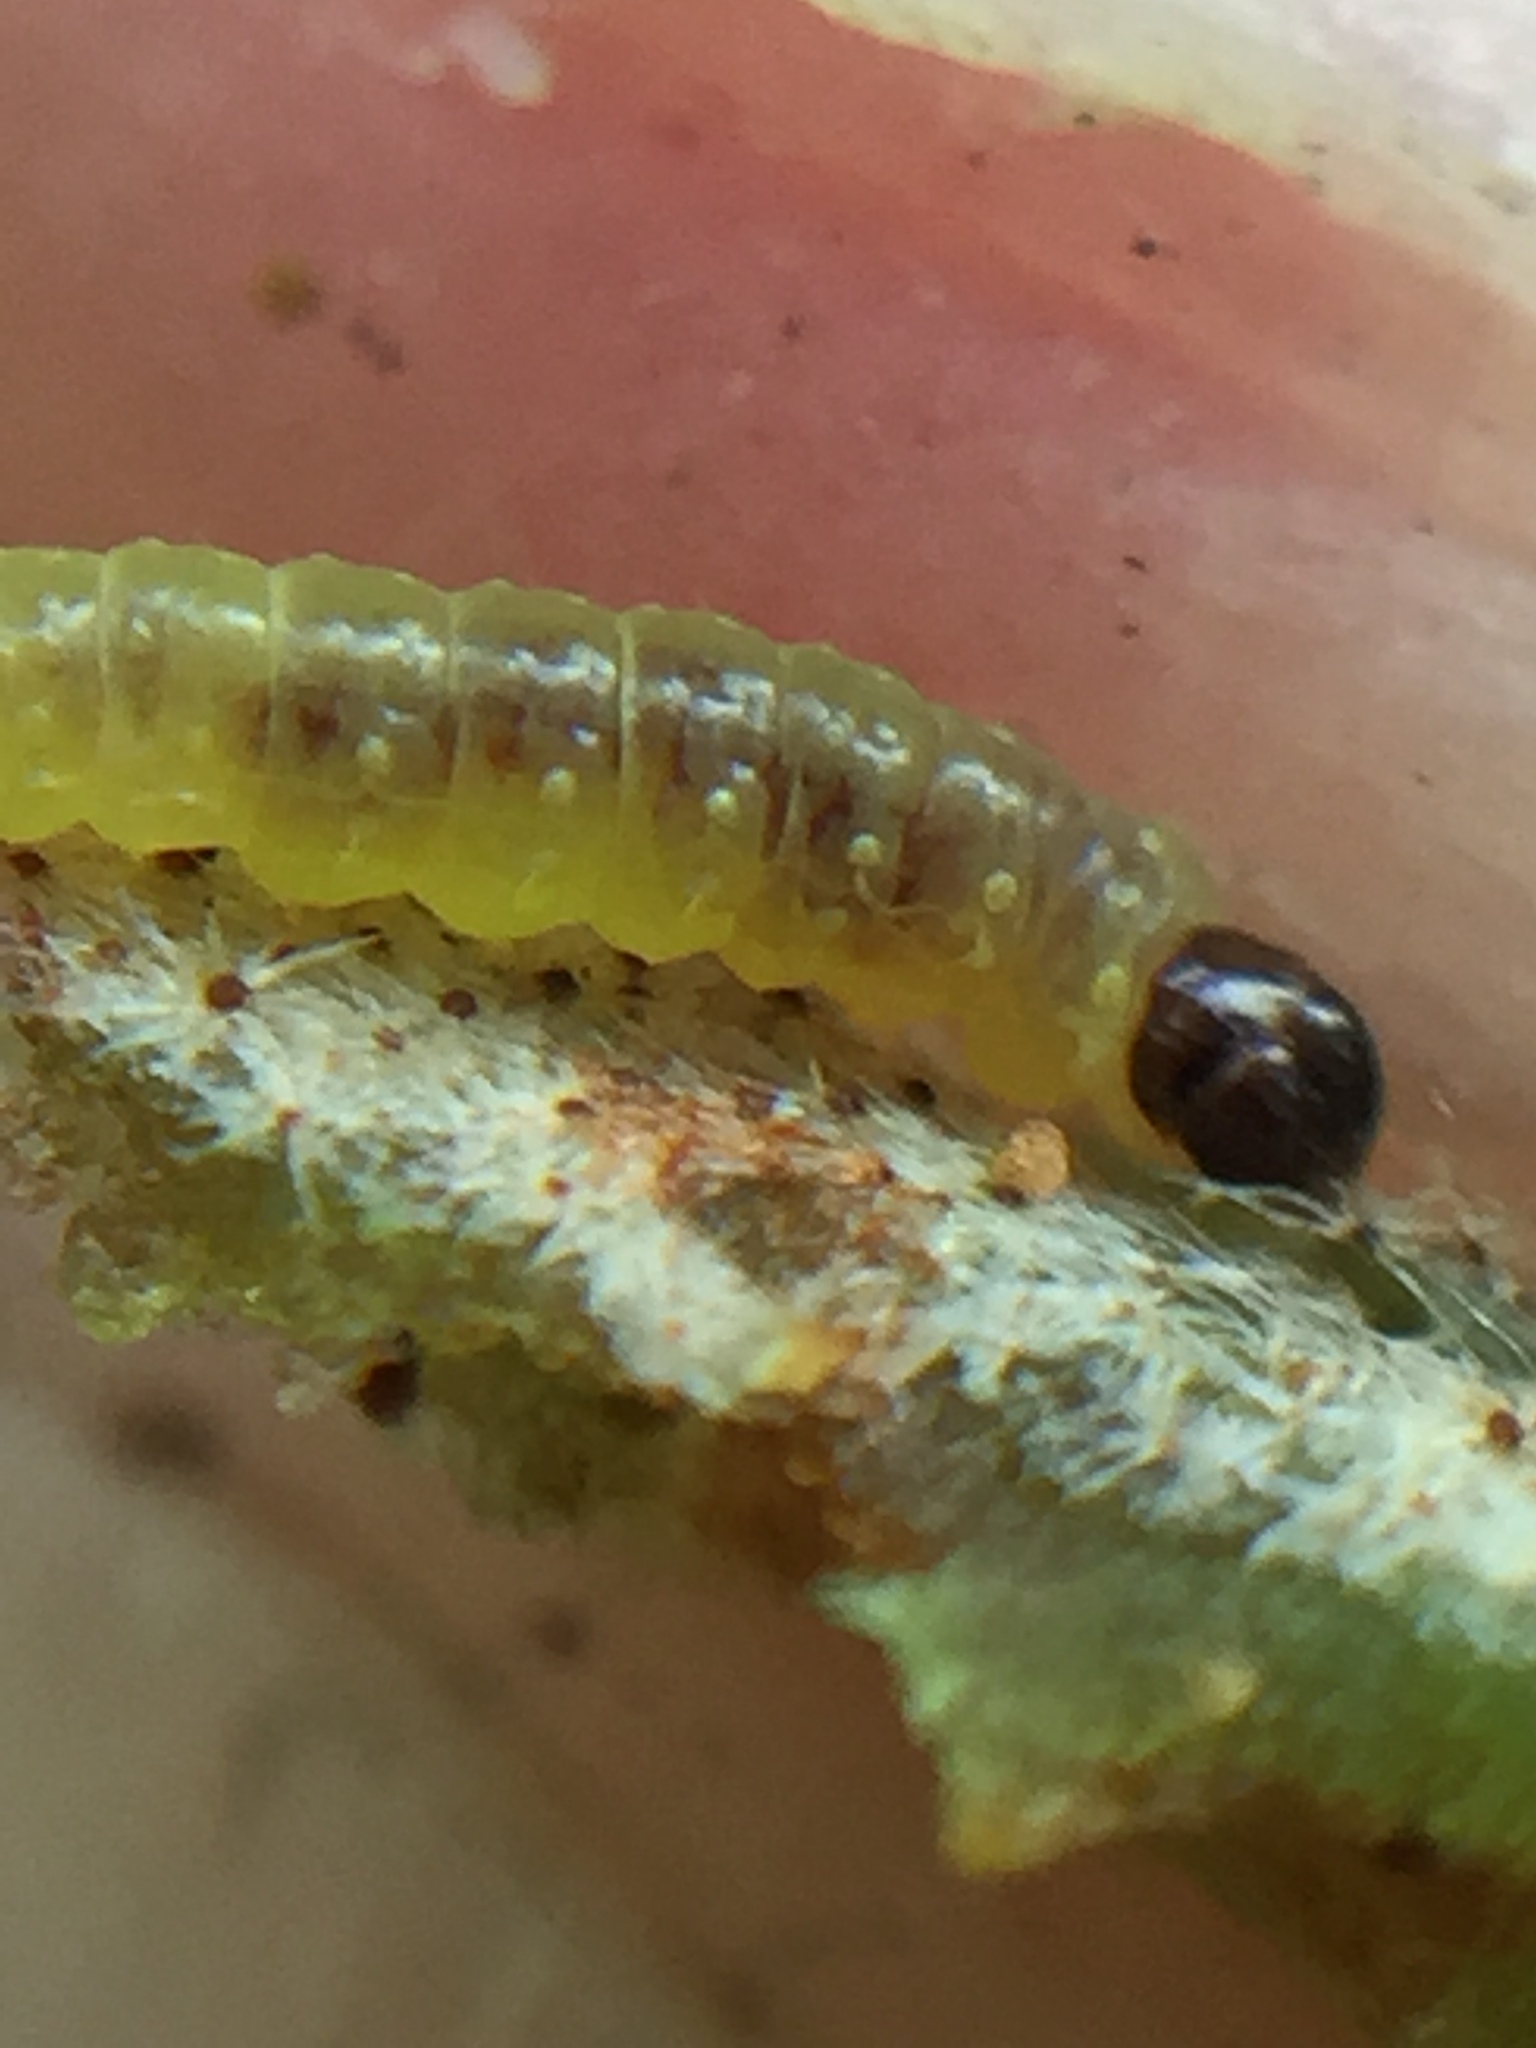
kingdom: Animalia
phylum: Arthropoda
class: Insecta
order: Lepidoptera
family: Tortricidae
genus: Philocryptica
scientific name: Philocryptica polypodii
